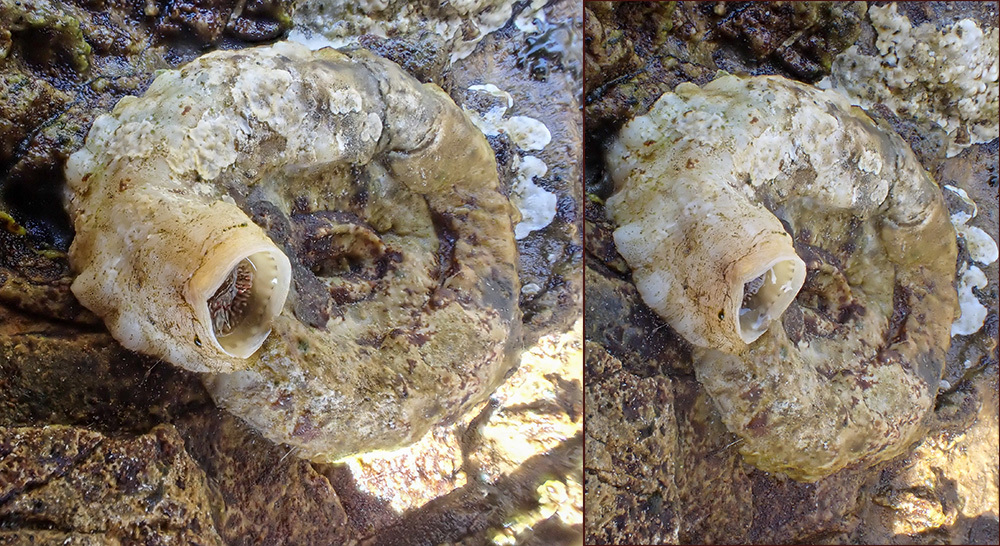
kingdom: Animalia
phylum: Mollusca
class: Gastropoda
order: Littorinimorpha
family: Vermetidae
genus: Dendropoma
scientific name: Dendropoma
